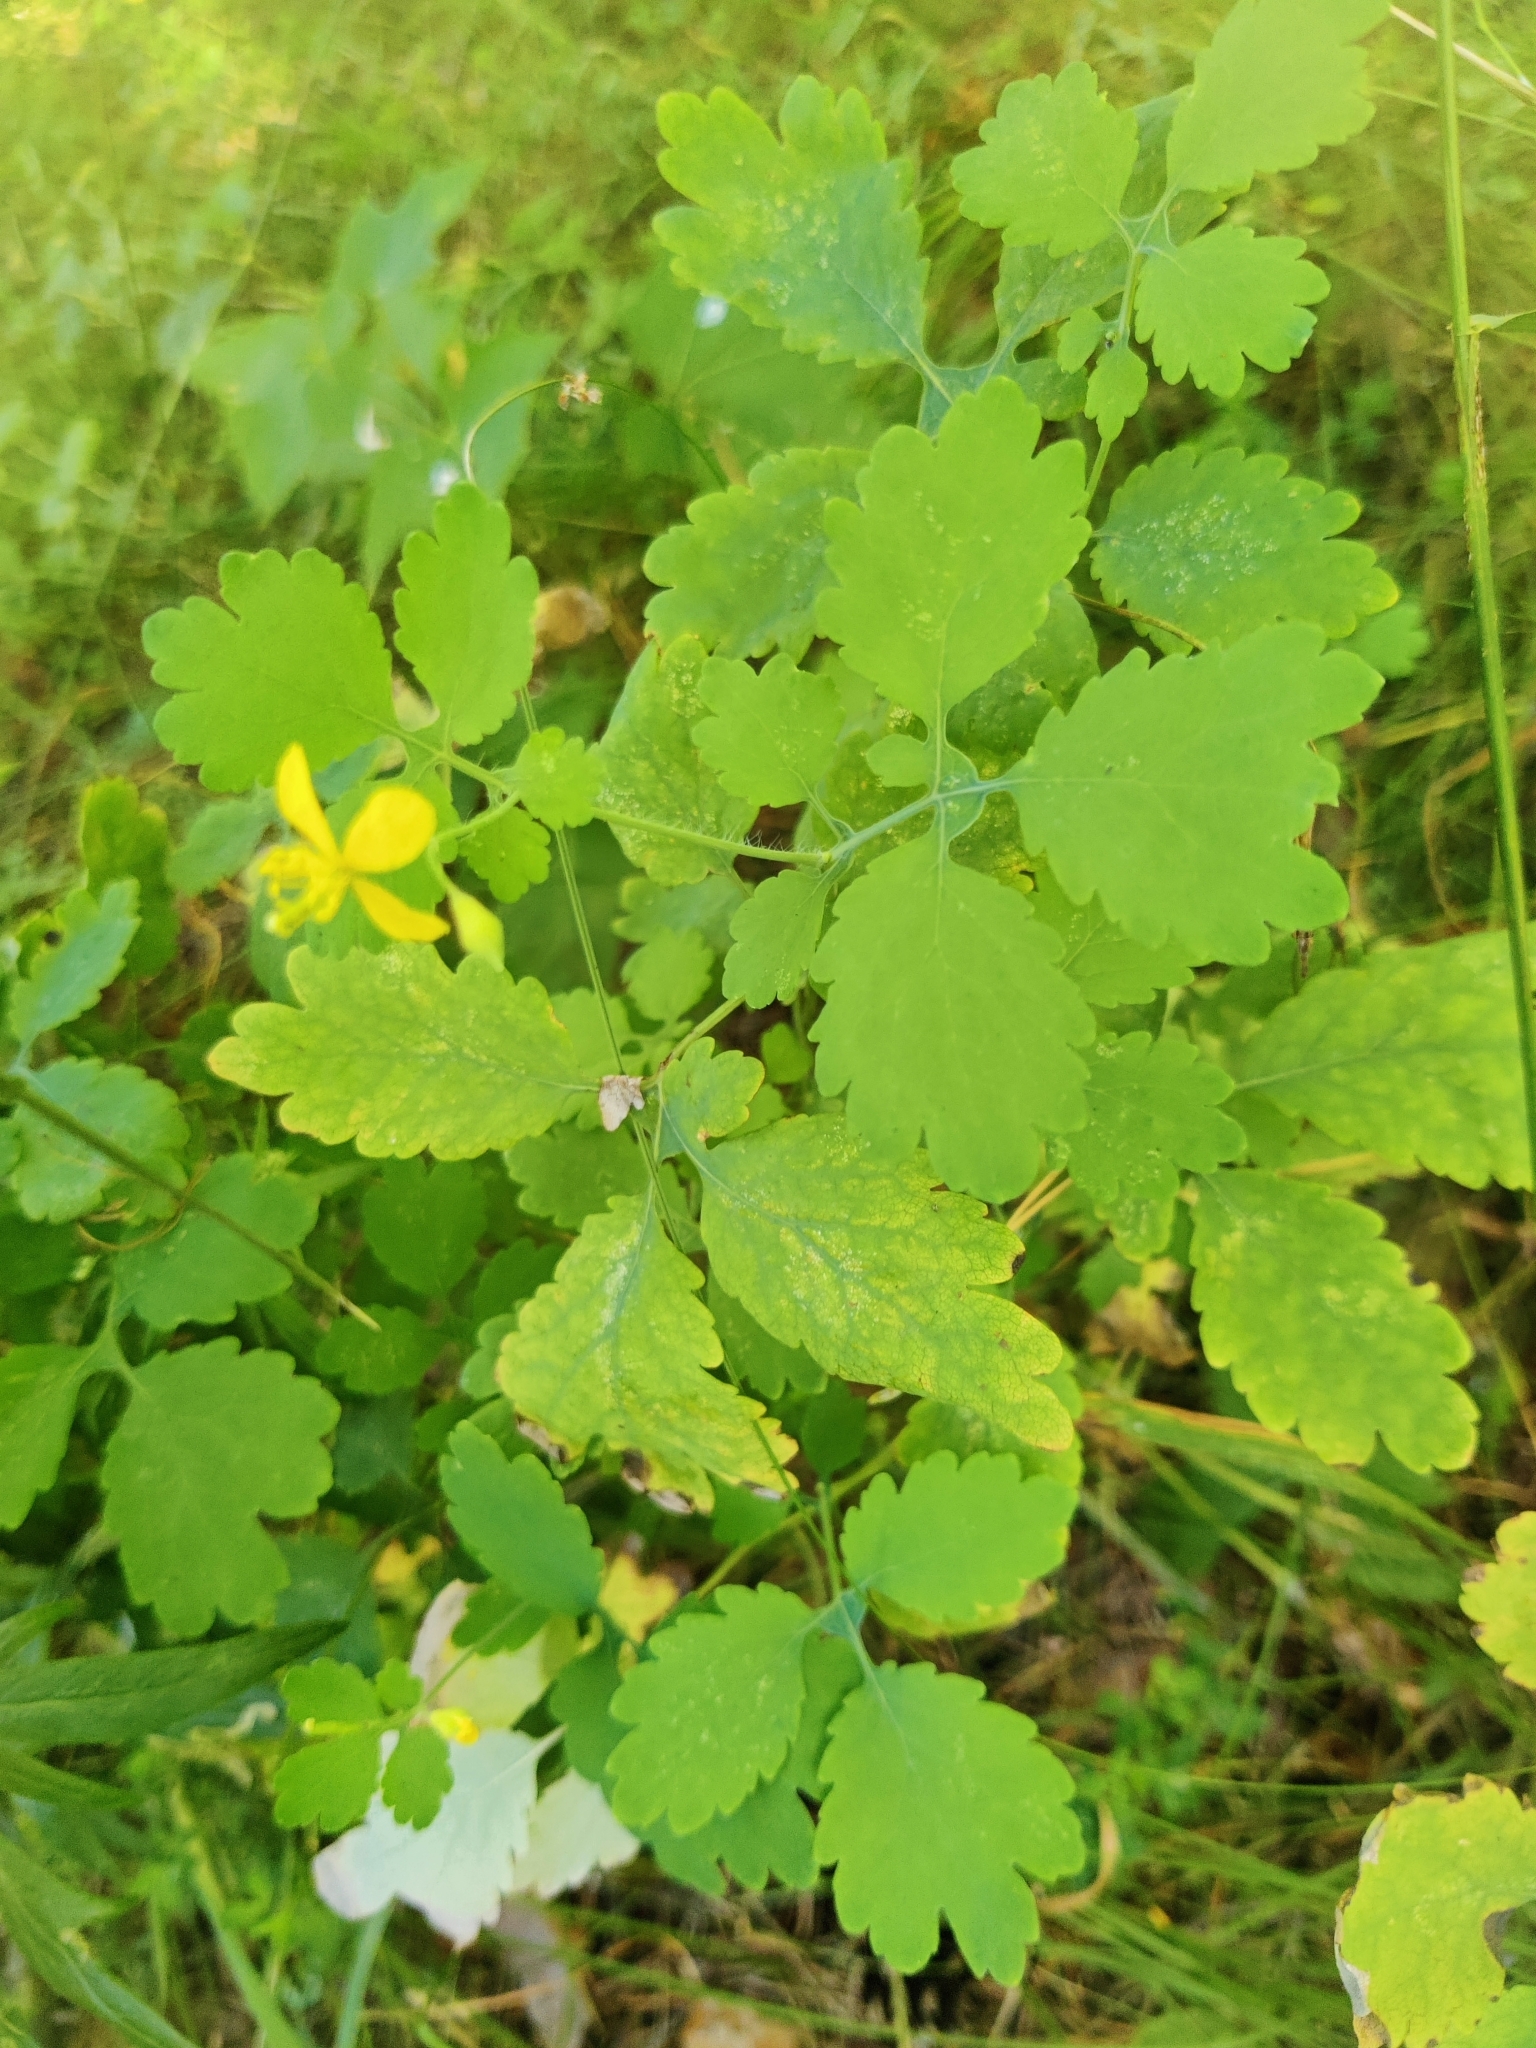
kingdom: Plantae
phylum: Tracheophyta
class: Magnoliopsida
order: Ranunculales
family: Papaveraceae
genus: Chelidonium
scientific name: Chelidonium majus
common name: Greater celandine
